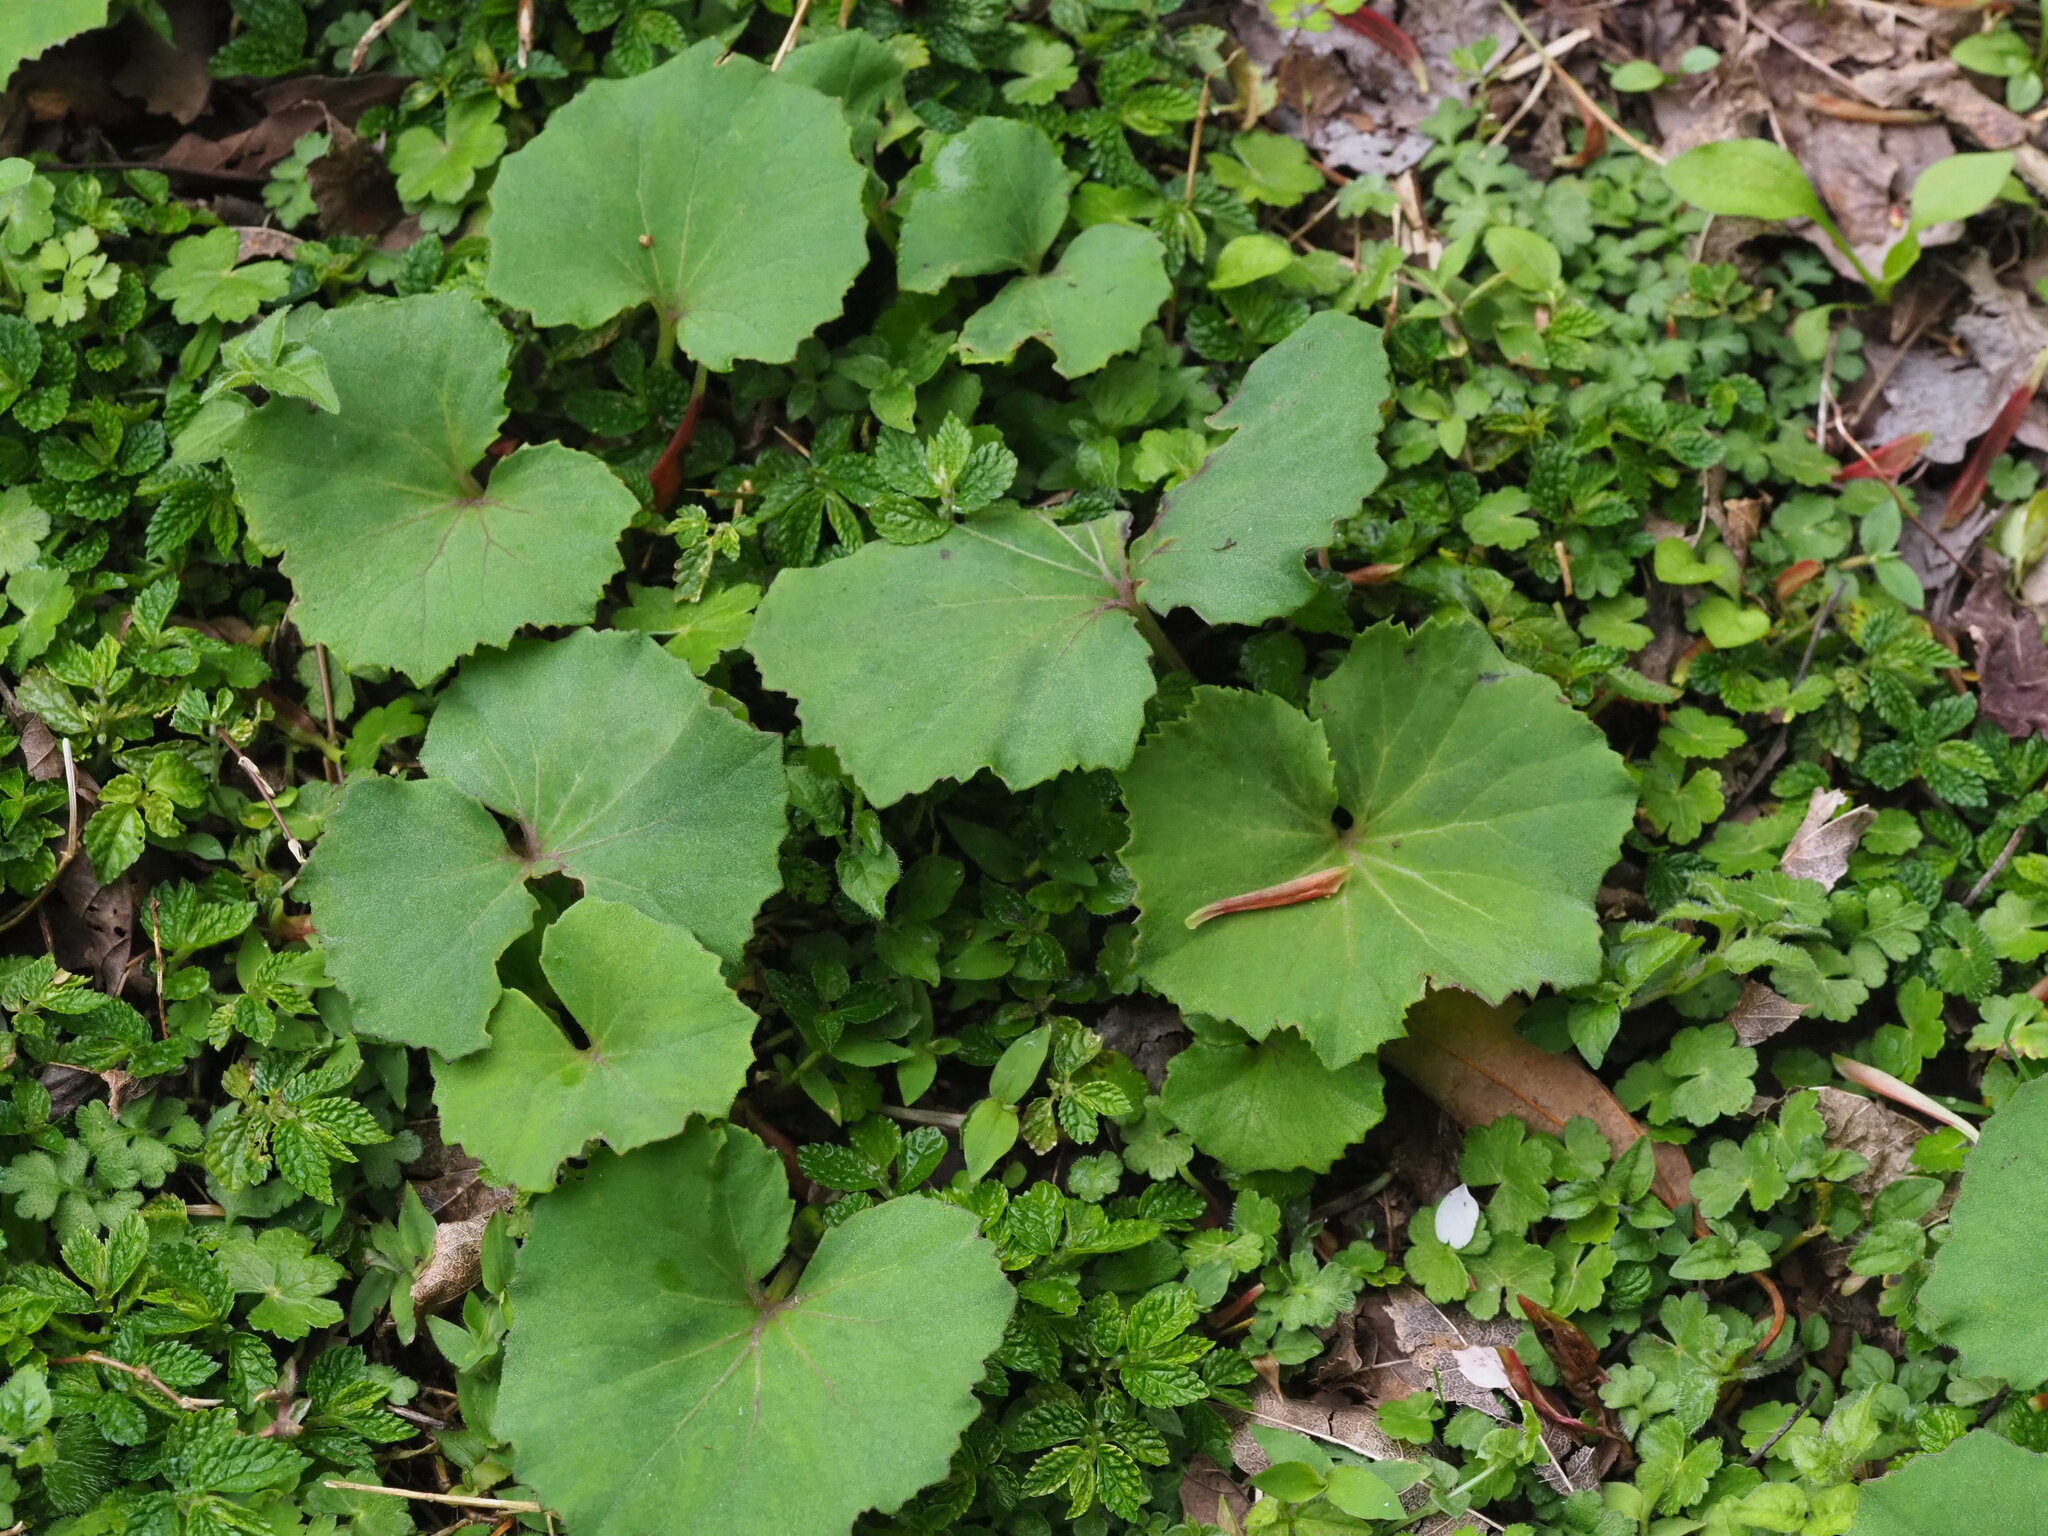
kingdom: Plantae
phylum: Tracheophyta
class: Magnoliopsida
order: Asterales
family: Asteraceae
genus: Petasites
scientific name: Petasites formosanus
